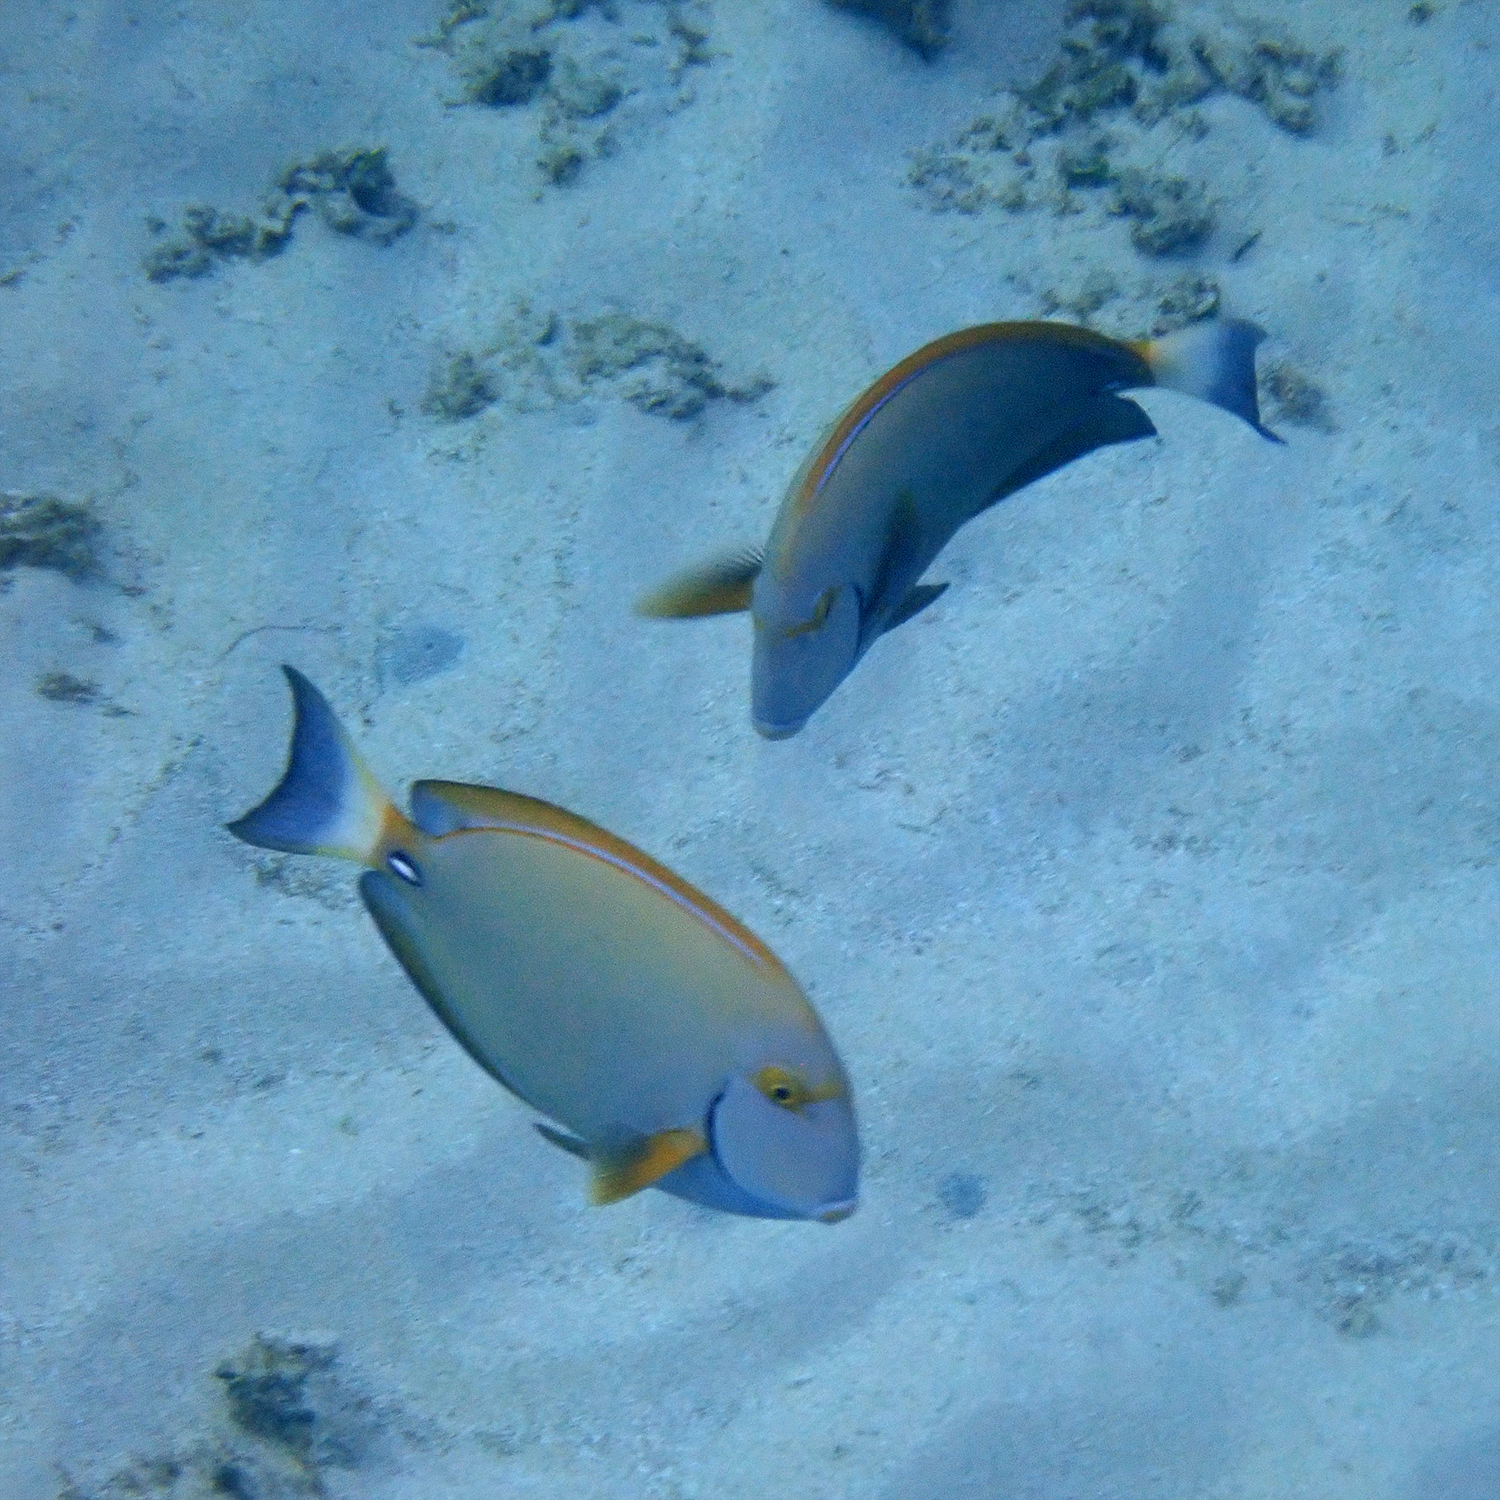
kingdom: Animalia
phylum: Chordata
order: Perciformes
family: Acanthuridae
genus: Acanthurus
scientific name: Acanthurus dussumieri
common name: Dussumier's surgeonfish
